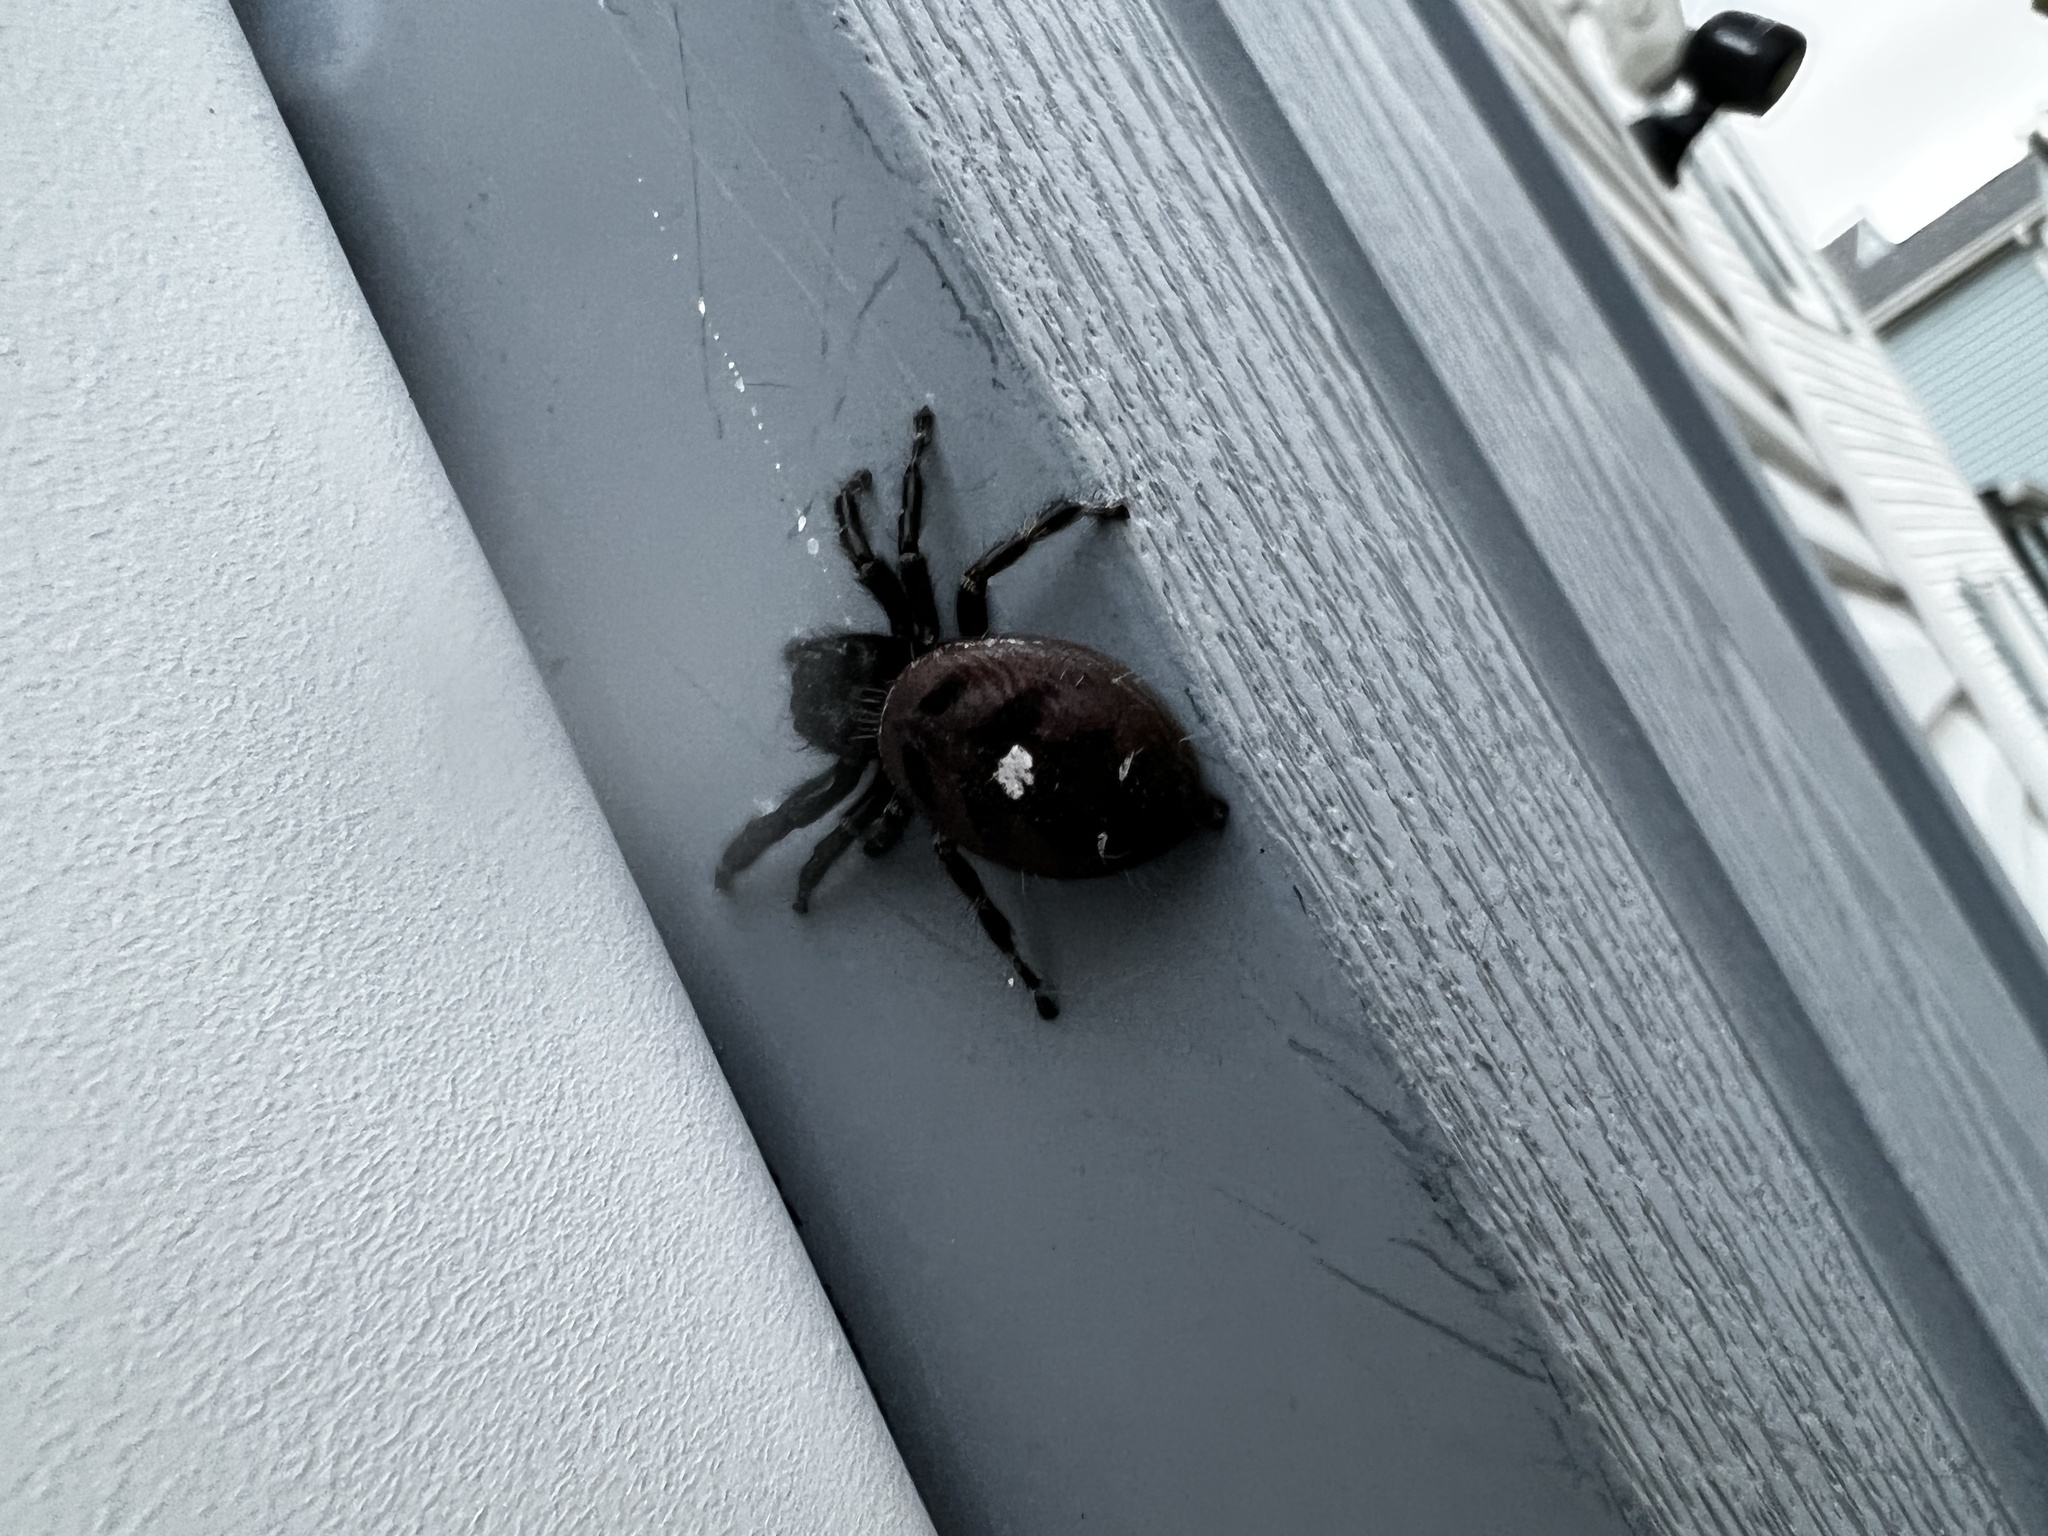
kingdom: Animalia
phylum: Arthropoda
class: Arachnida
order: Araneae
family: Salticidae
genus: Phidippus
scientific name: Phidippus audax
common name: Bold jumper
